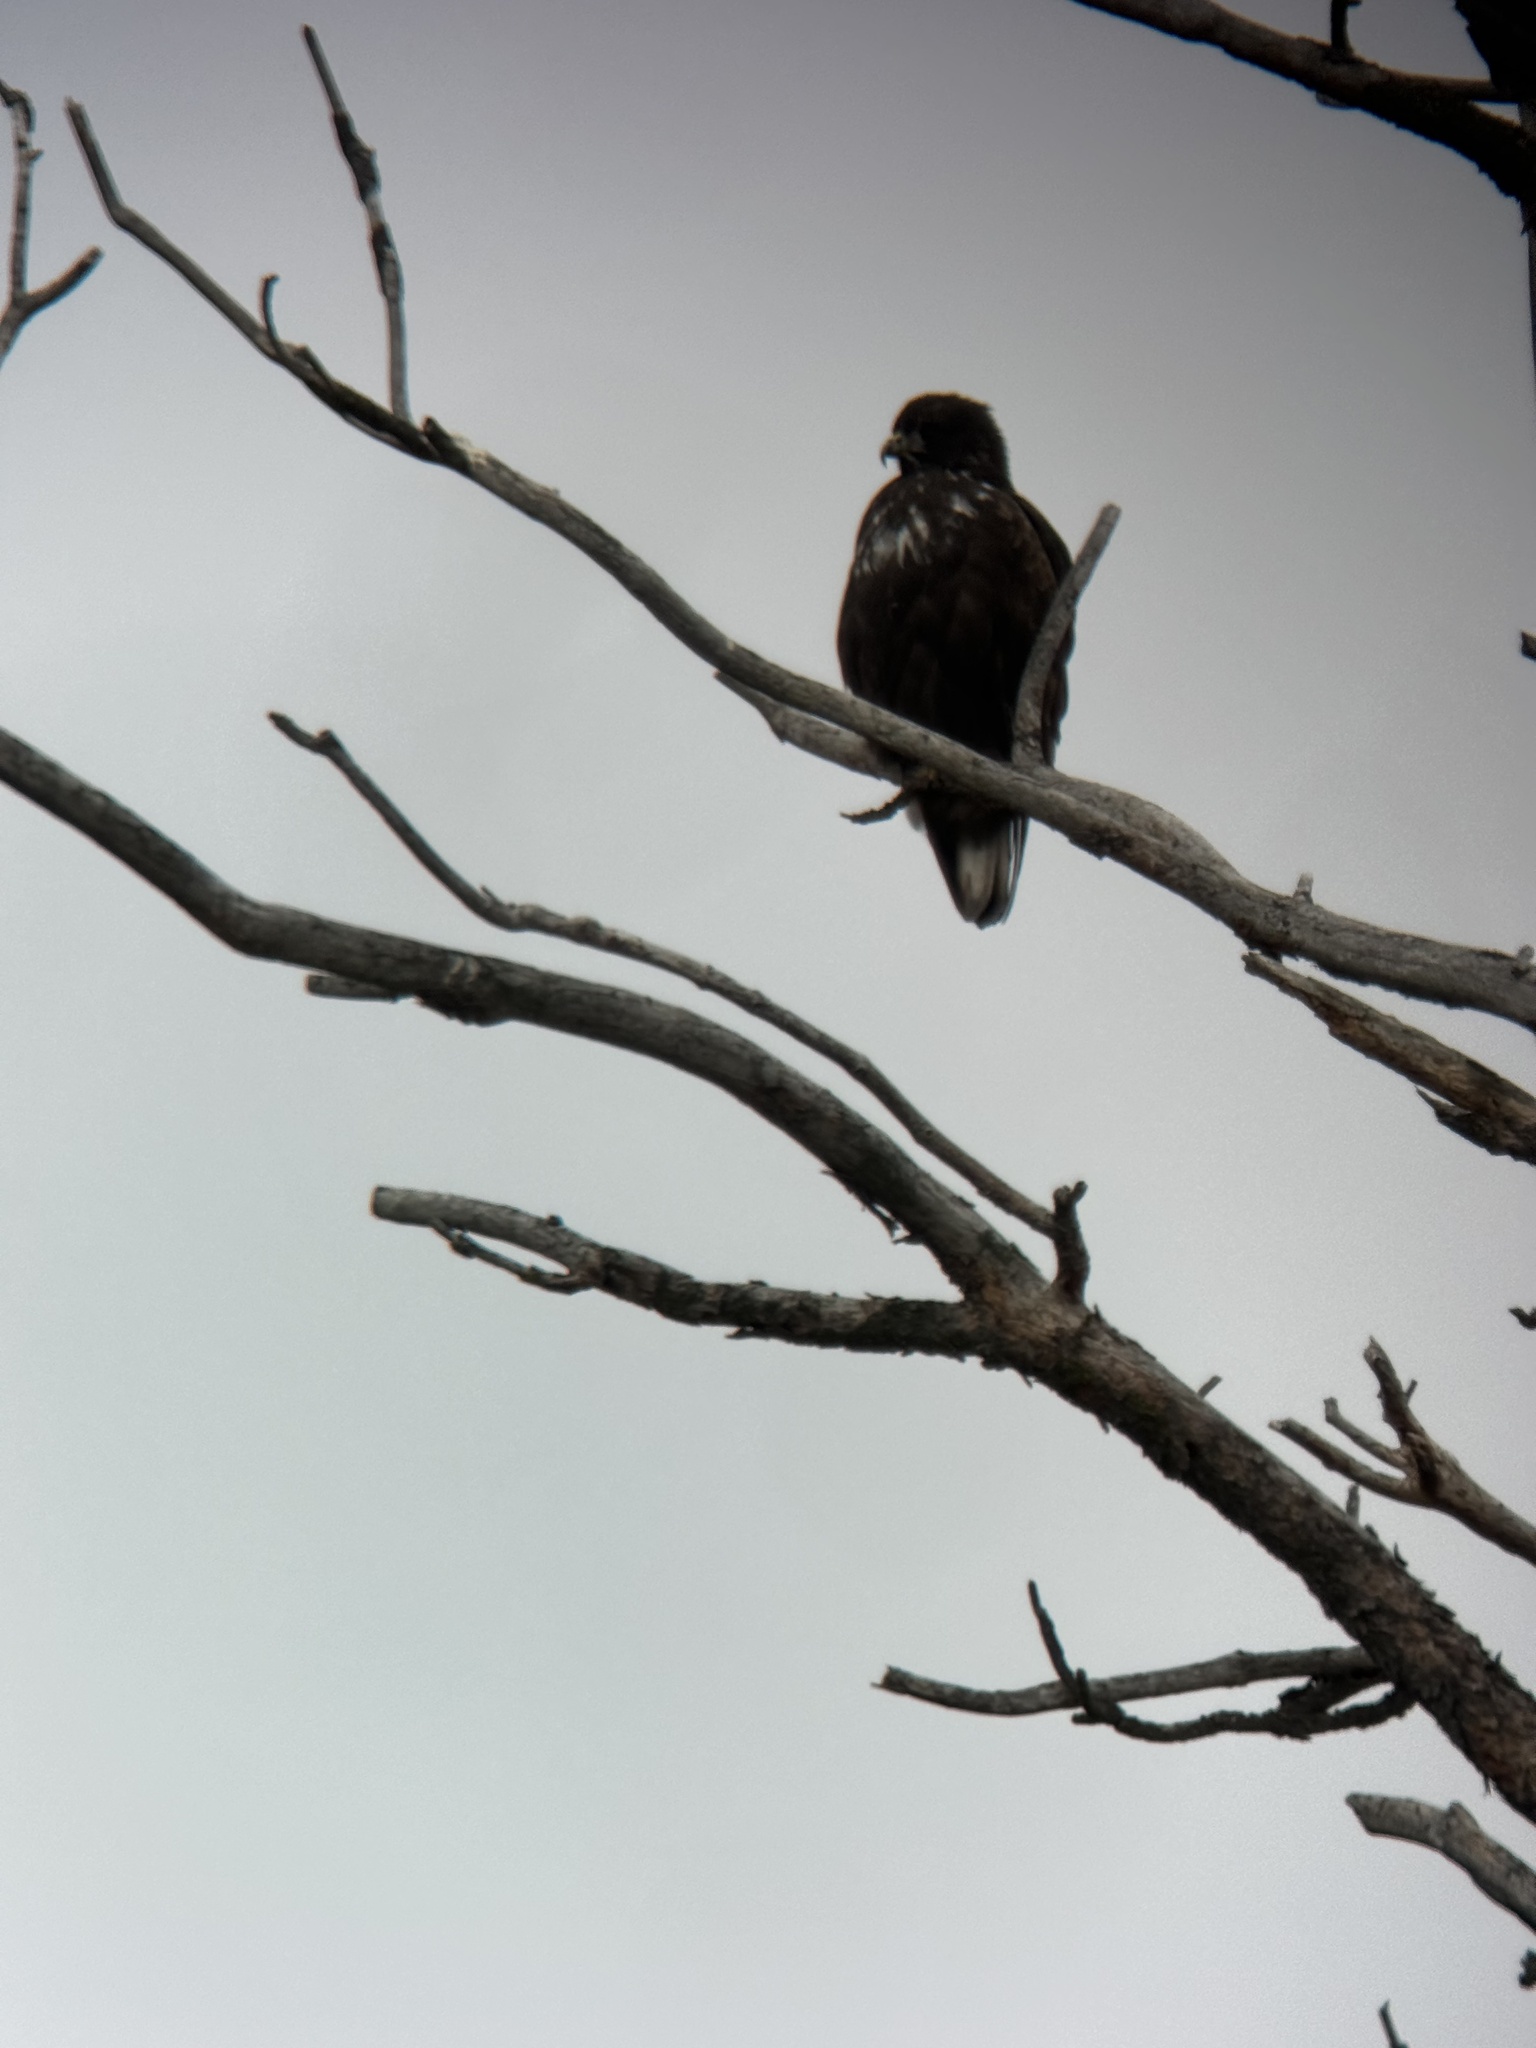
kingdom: Animalia
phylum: Chordata
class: Aves
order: Accipitriformes
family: Accipitridae
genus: Buteo
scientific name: Buteo jamaicensis
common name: Red-tailed hawk
